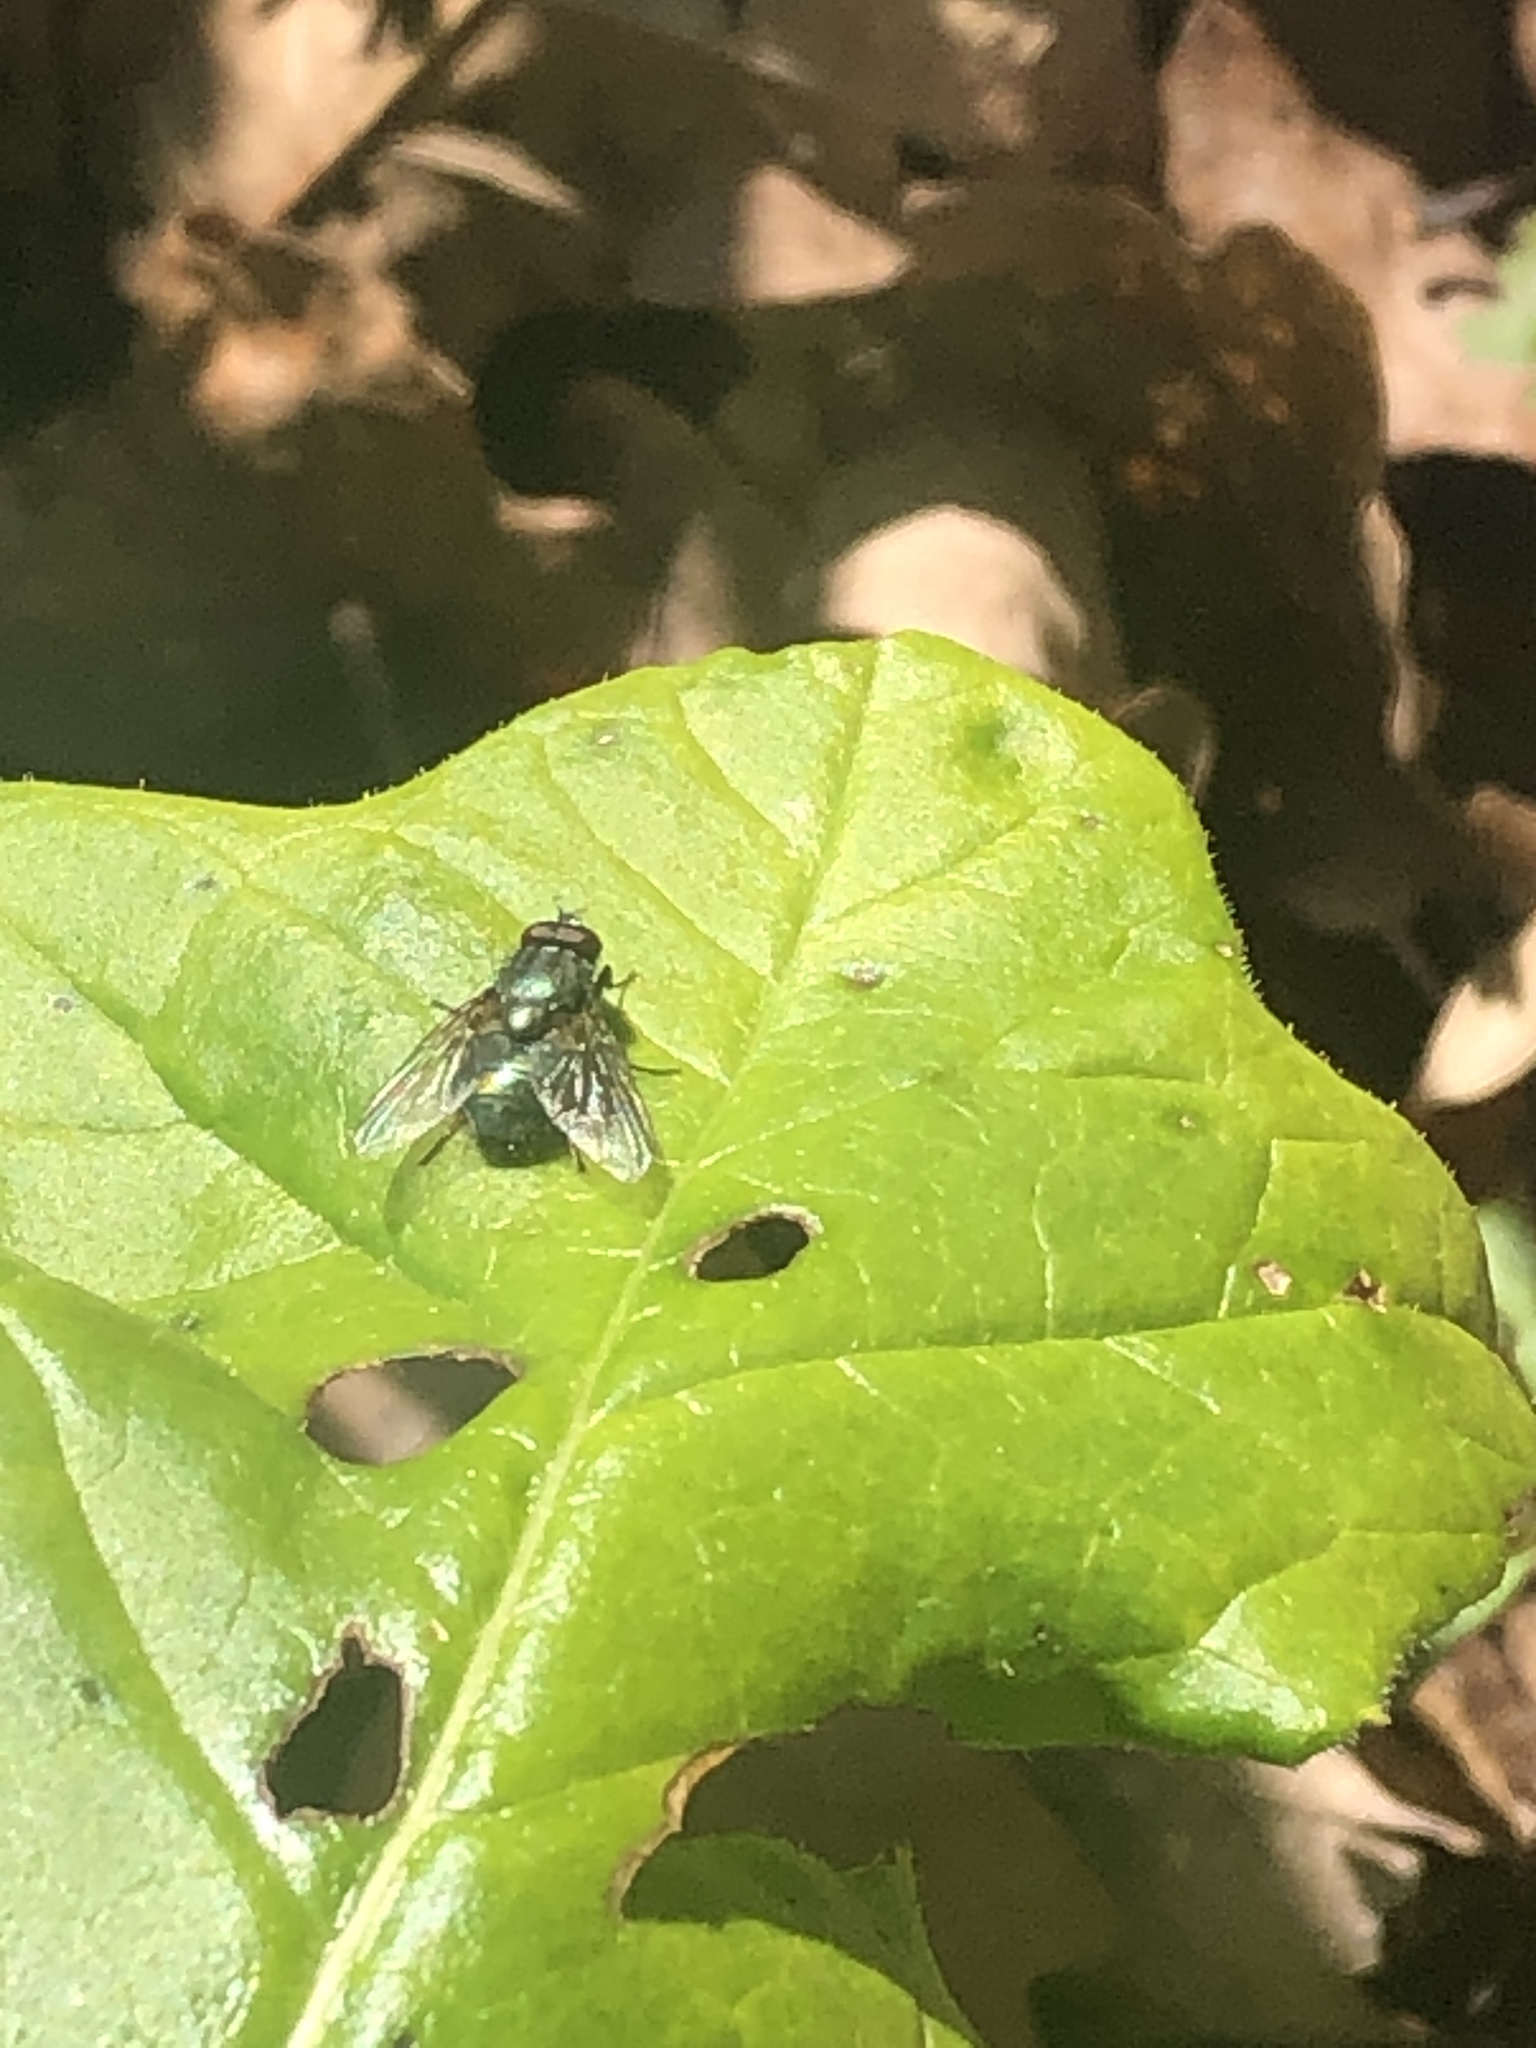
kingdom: Animalia
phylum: Arthropoda
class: Insecta
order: Diptera
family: Muscidae
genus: Dasyphora
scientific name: Dasyphora cyanella
